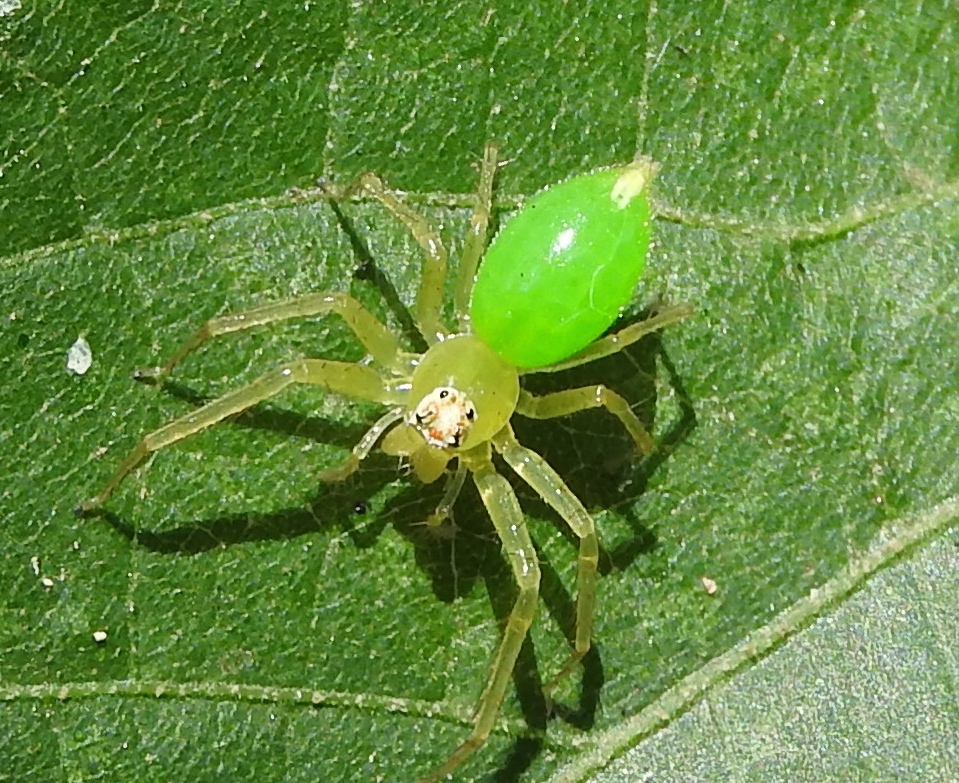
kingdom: Animalia
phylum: Arthropoda
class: Arachnida
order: Araneae
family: Salticidae
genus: Lyssomanes
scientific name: Lyssomanes
